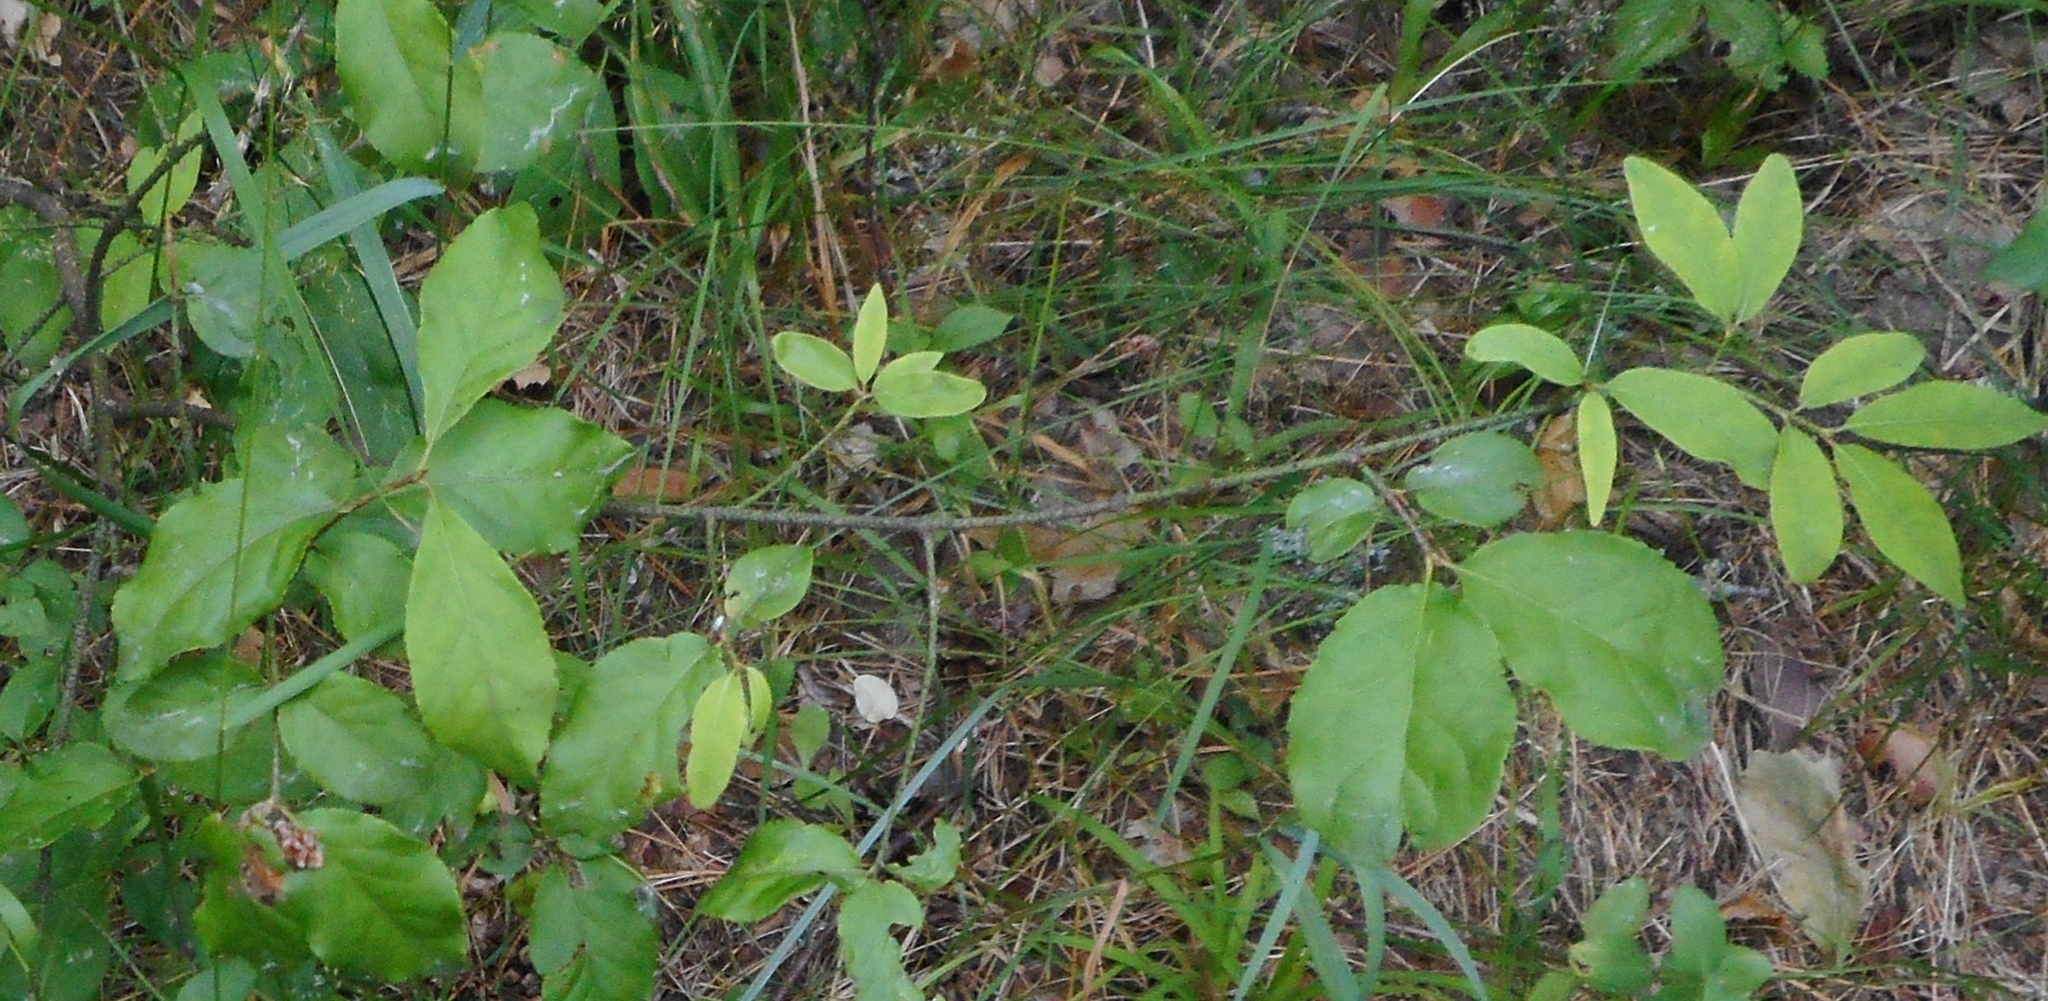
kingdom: Plantae
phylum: Tracheophyta
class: Magnoliopsida
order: Celastrales
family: Celastraceae
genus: Euonymus
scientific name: Euonymus verrucosus
